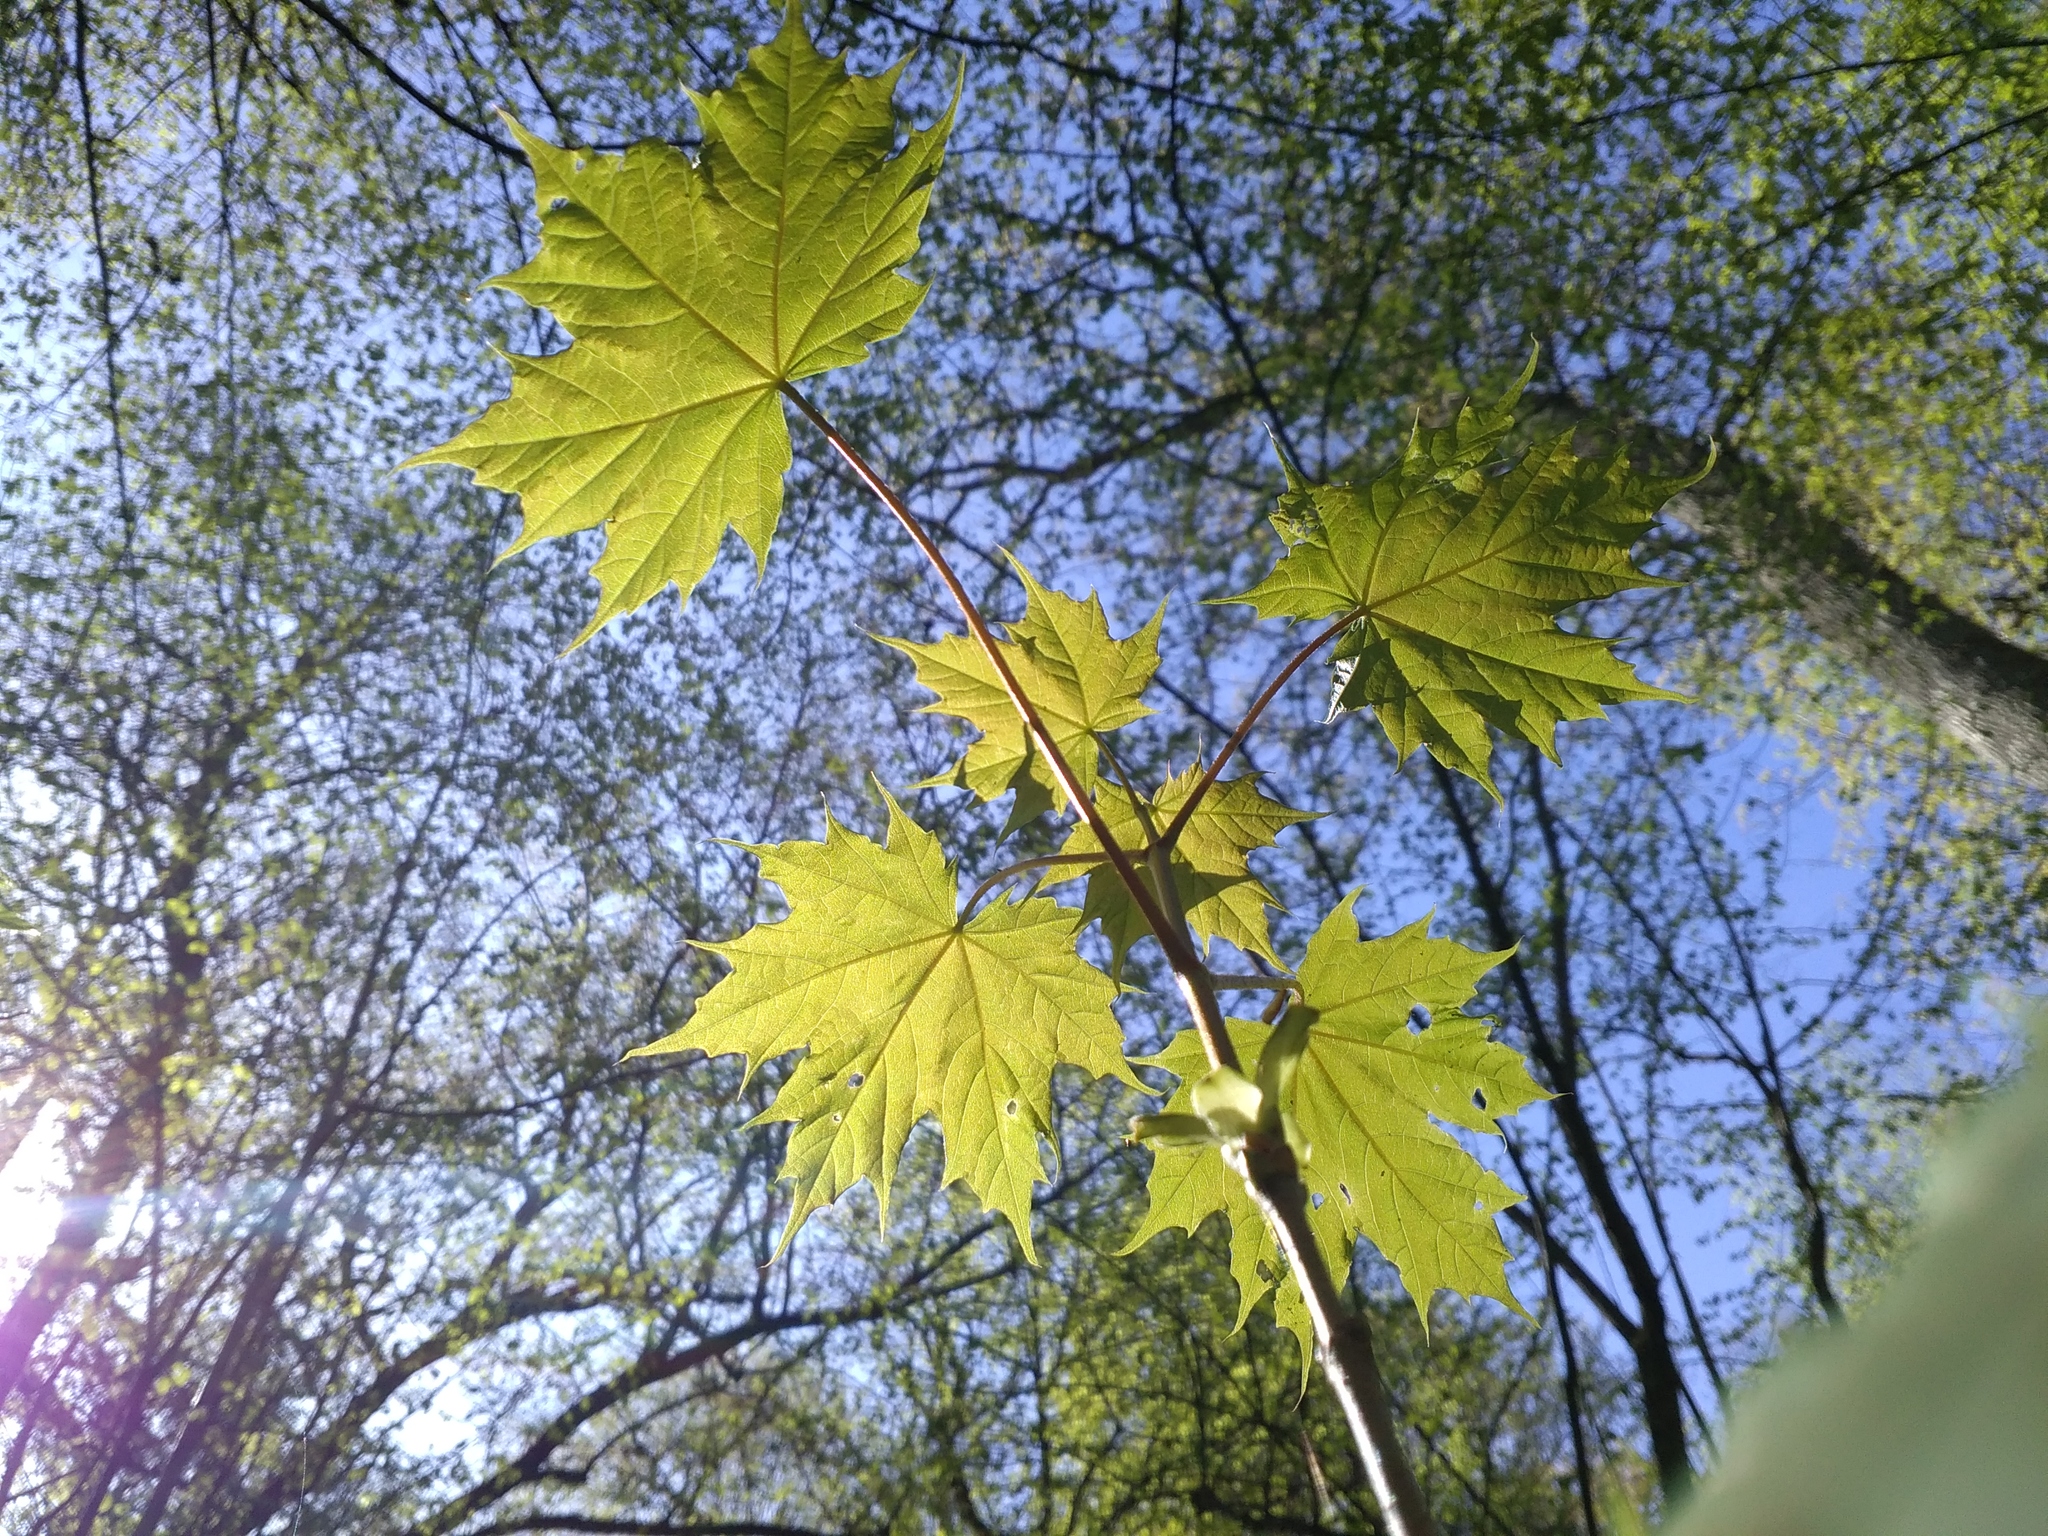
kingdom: Plantae
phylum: Tracheophyta
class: Magnoliopsida
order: Sapindales
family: Sapindaceae
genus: Acer
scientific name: Acer platanoides
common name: Norway maple
